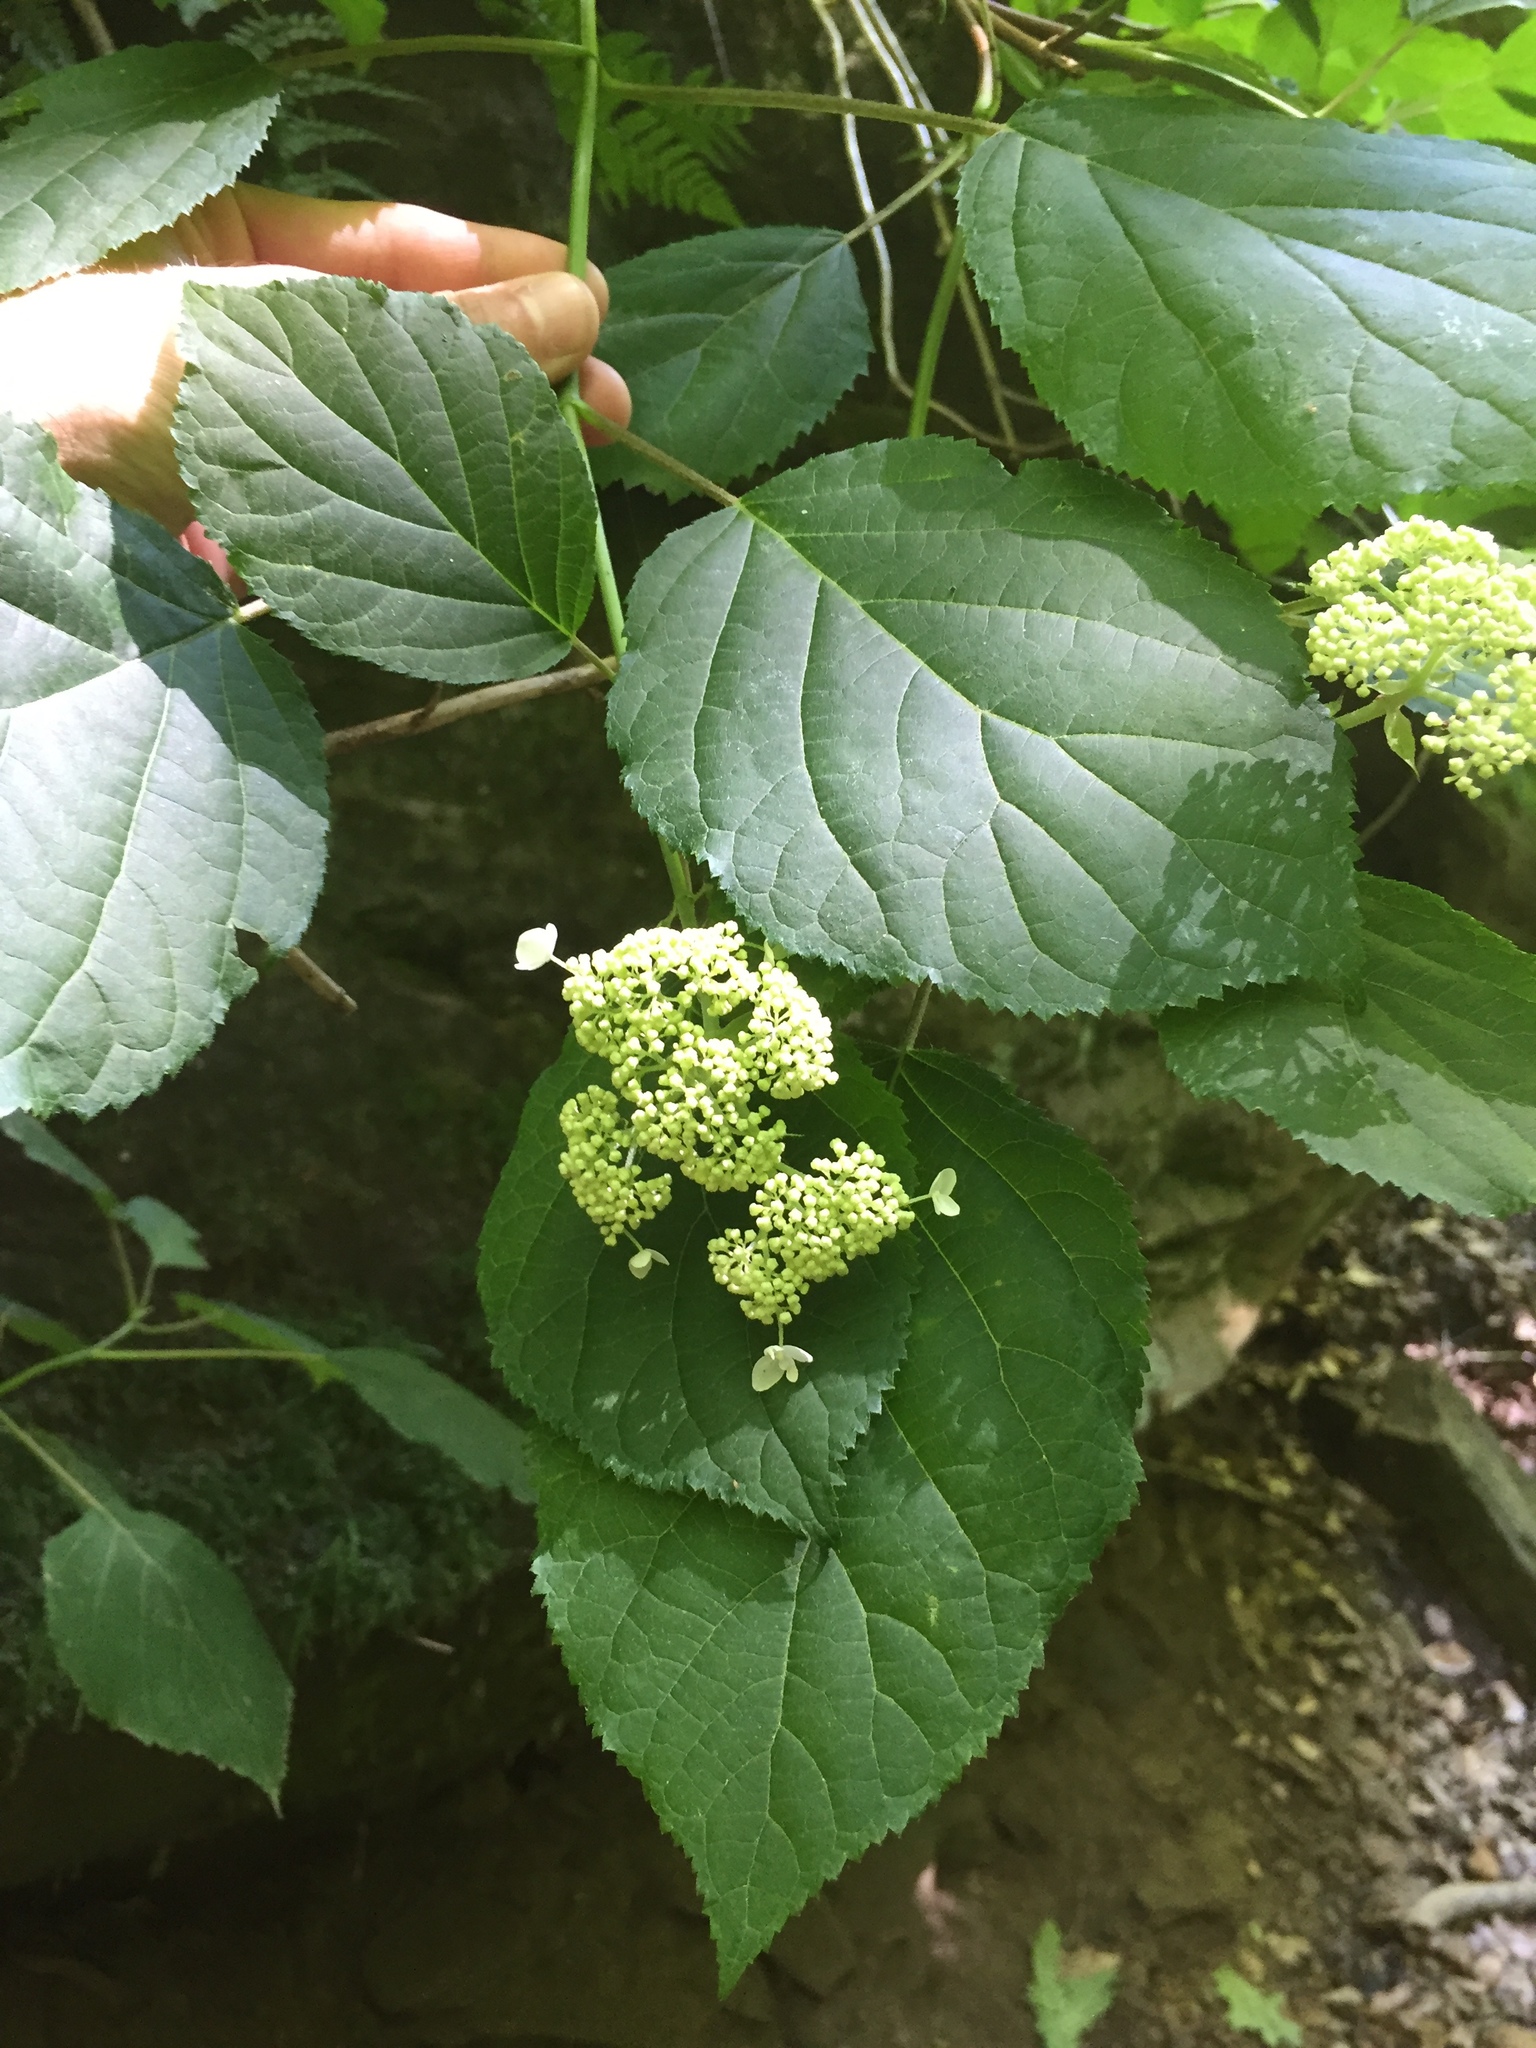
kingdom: Plantae
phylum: Tracheophyta
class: Magnoliopsida
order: Cornales
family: Hydrangeaceae
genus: Hydrangea
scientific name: Hydrangea arborescens
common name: Sevenbark
